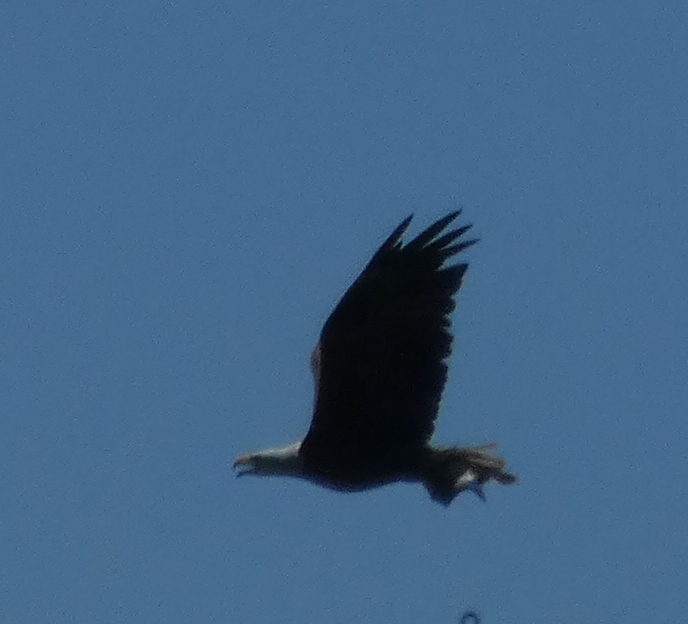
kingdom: Animalia
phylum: Chordata
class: Aves
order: Accipitriformes
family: Accipitridae
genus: Haliaeetus
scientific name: Haliaeetus leucocephalus
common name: Bald eagle
